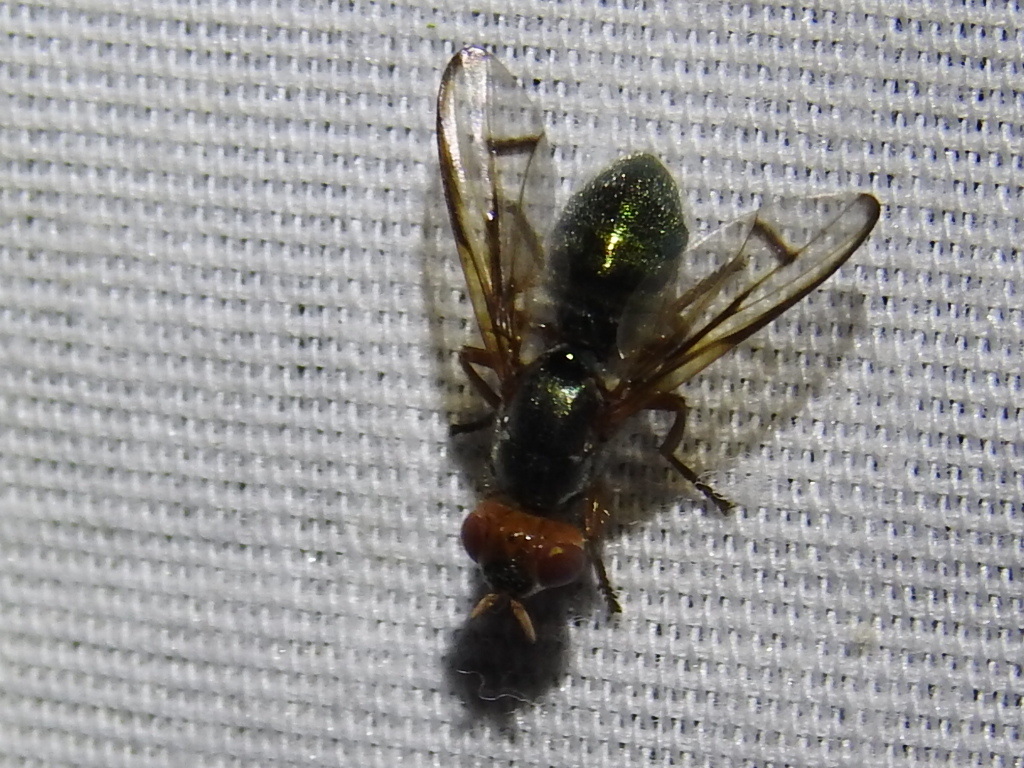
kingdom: Animalia
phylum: Arthropoda
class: Insecta
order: Diptera
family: Platystomatidae
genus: Senopterina
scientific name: Senopterina caerulescens
